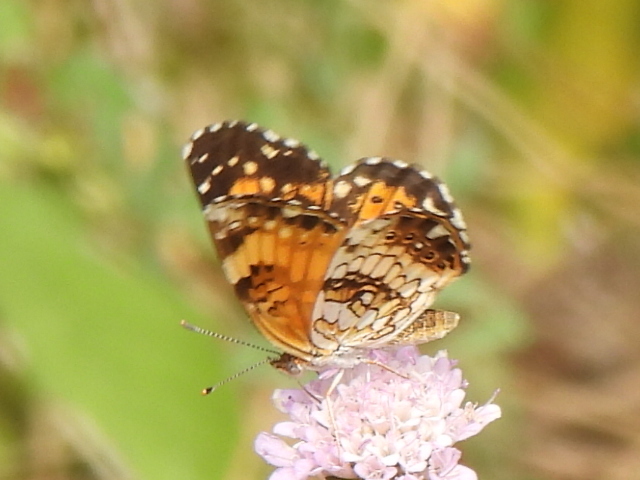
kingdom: Animalia
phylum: Arthropoda
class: Insecta
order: Lepidoptera
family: Nymphalidae
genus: Chlosyne
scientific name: Chlosyne nycteis
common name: Silvery checkerspot
